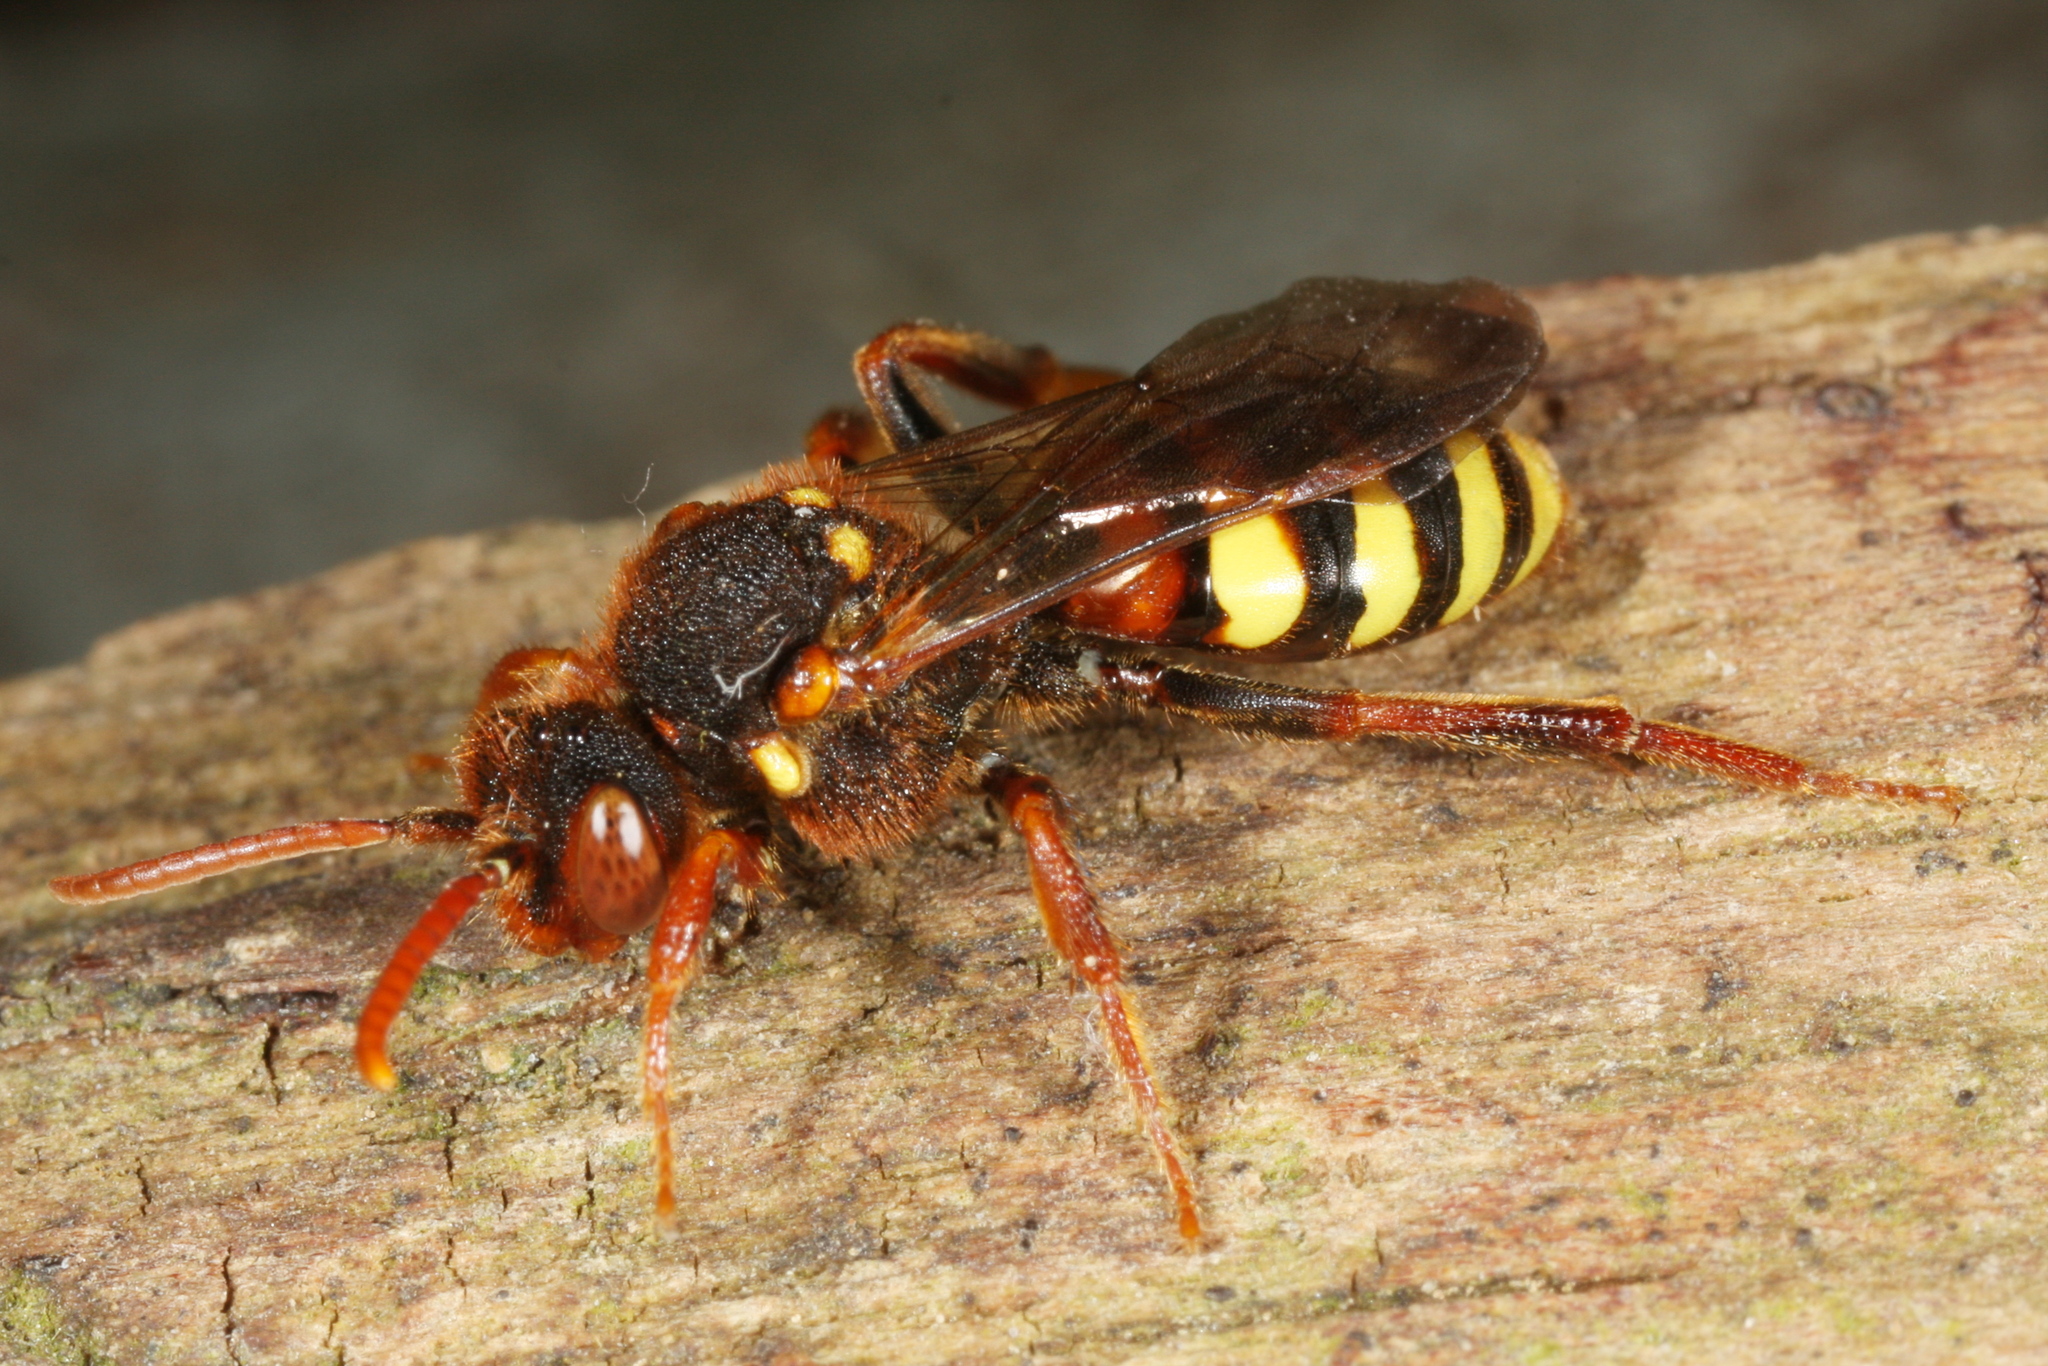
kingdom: Animalia
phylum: Arthropoda
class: Insecta
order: Hymenoptera
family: Apidae
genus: Nomada
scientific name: Nomada lathburiana
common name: Lathbury's nomad bee
